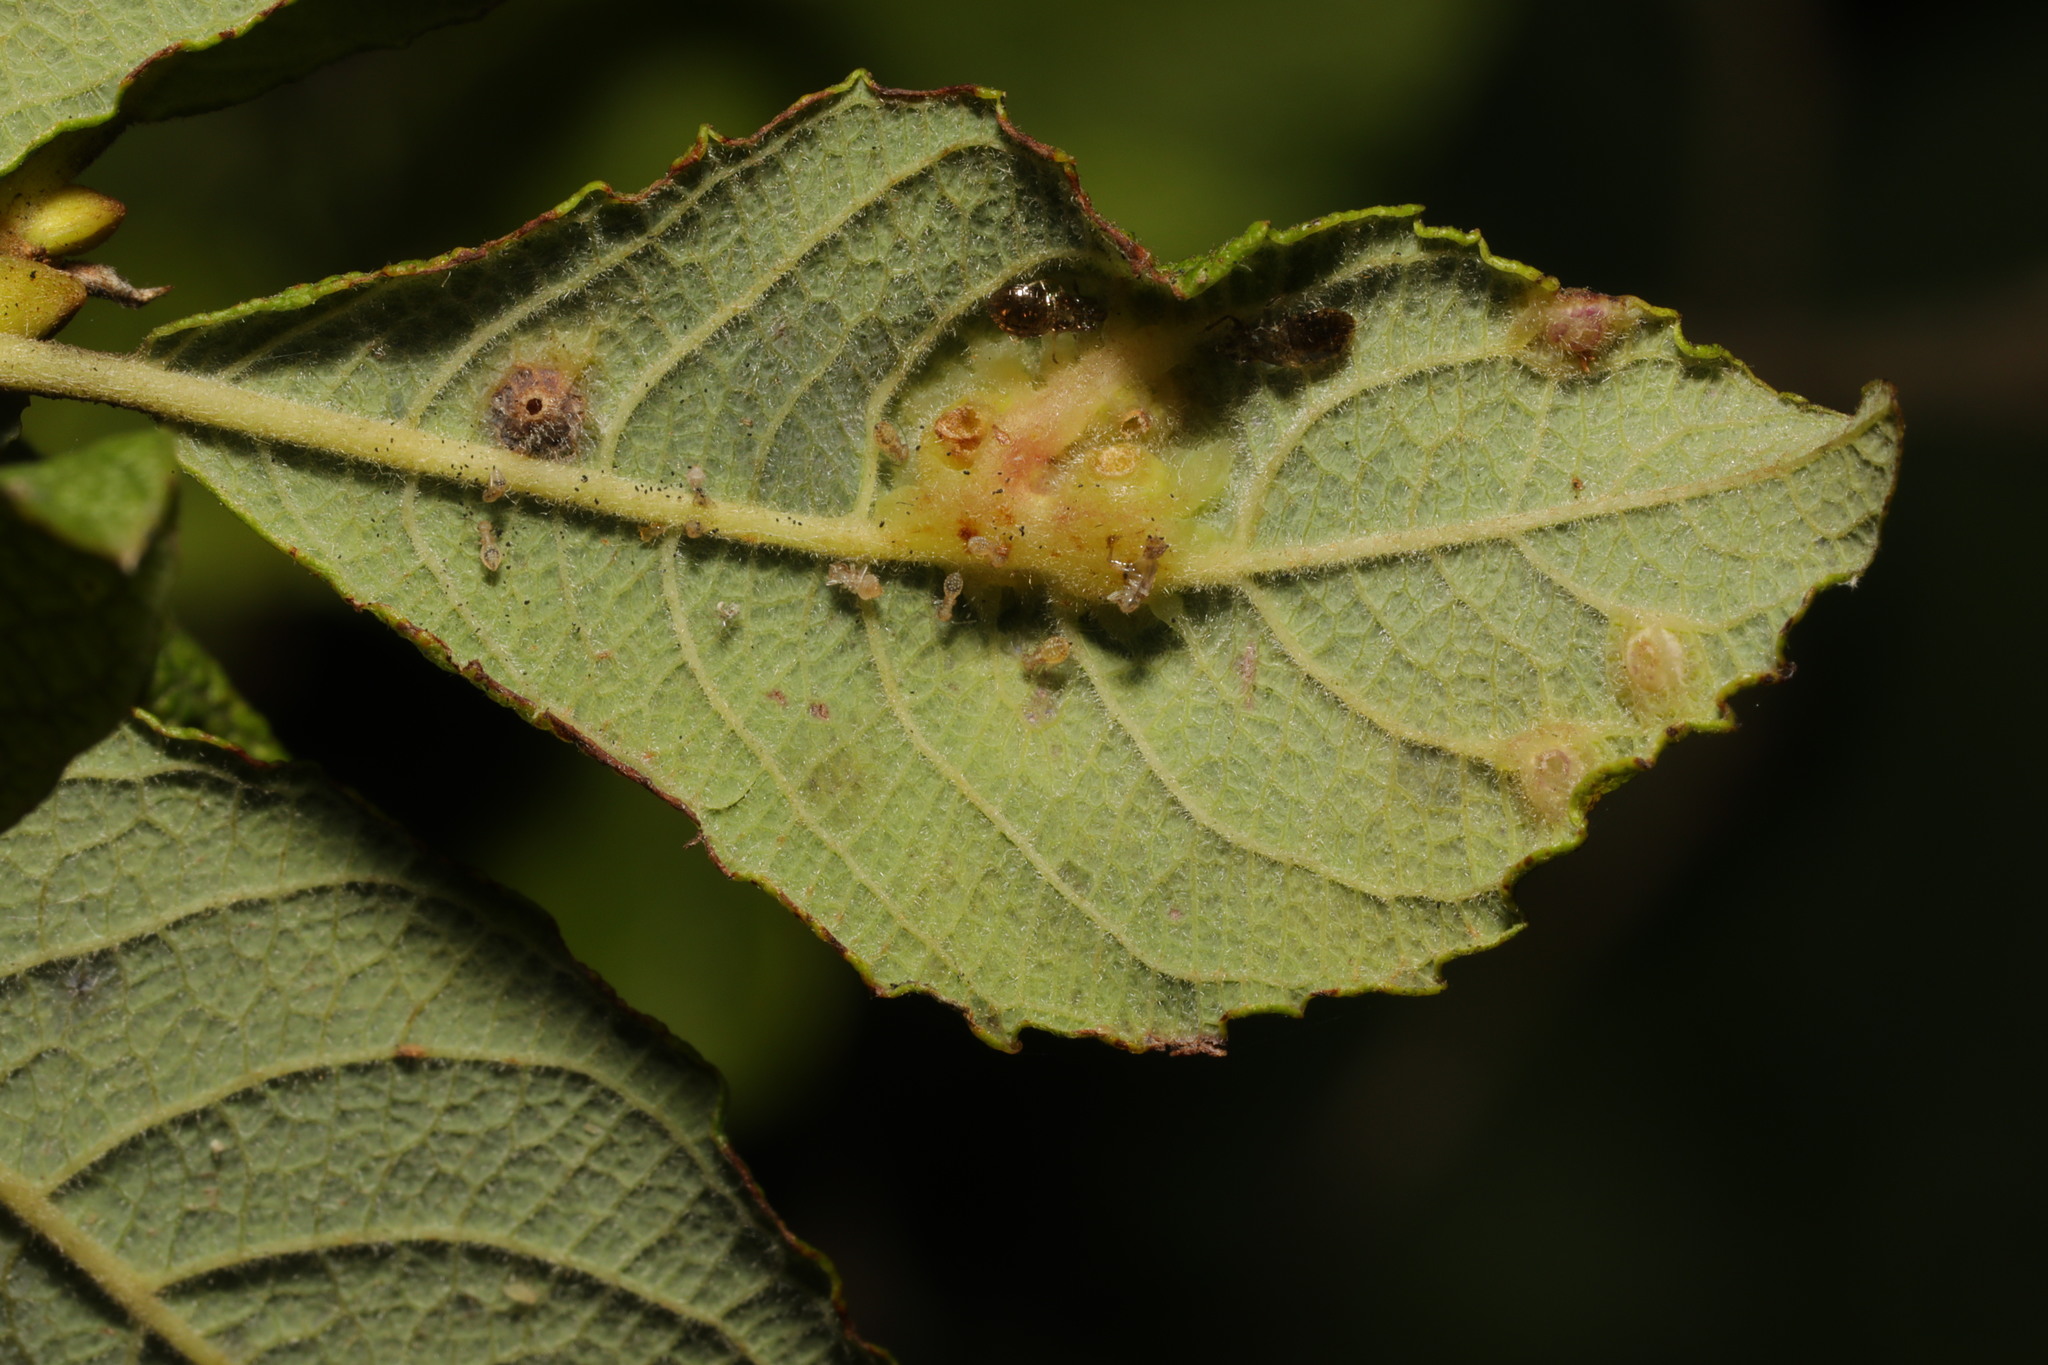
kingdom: Animalia
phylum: Arthropoda
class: Insecta
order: Diptera
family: Cecidomyiidae
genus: Iteomyia
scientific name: Iteomyia major
